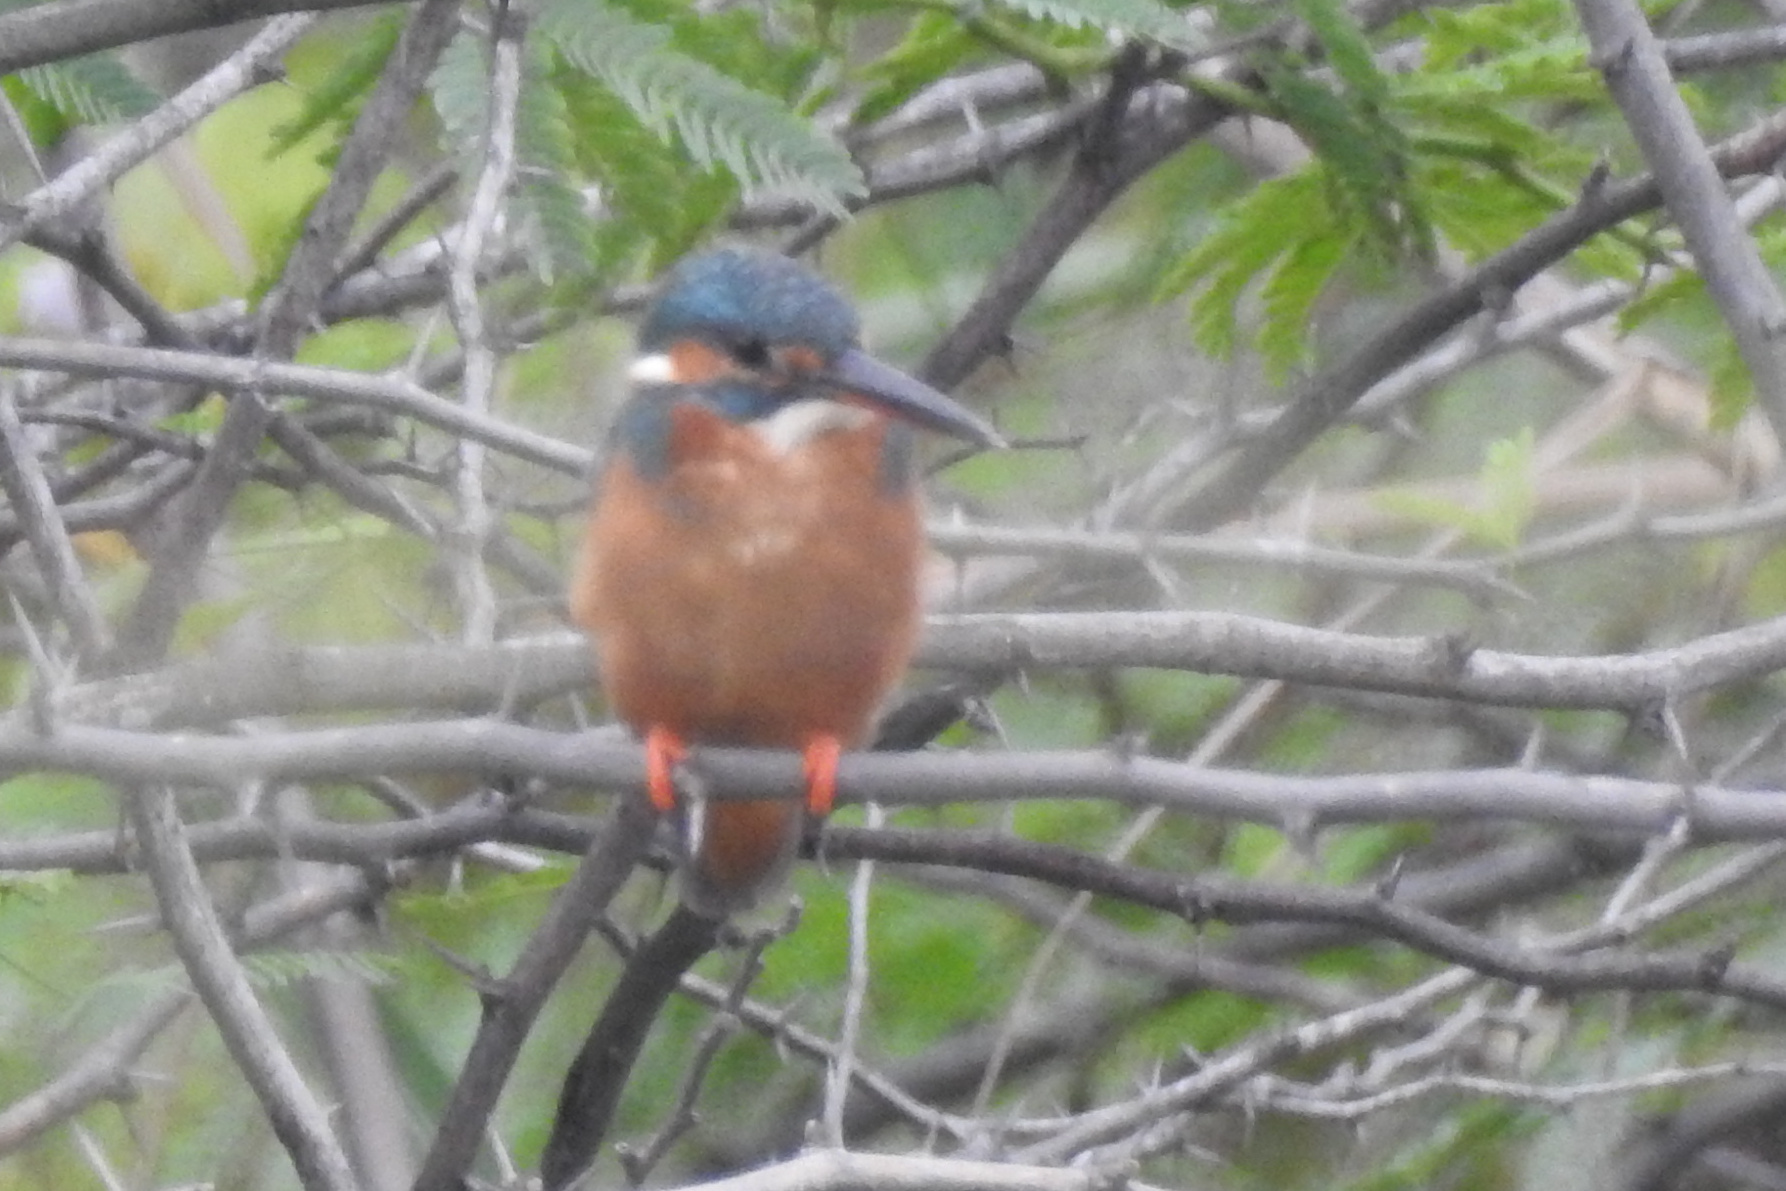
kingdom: Animalia
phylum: Chordata
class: Aves
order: Coraciiformes
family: Alcedinidae
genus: Alcedo
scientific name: Alcedo atthis
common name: Common kingfisher
